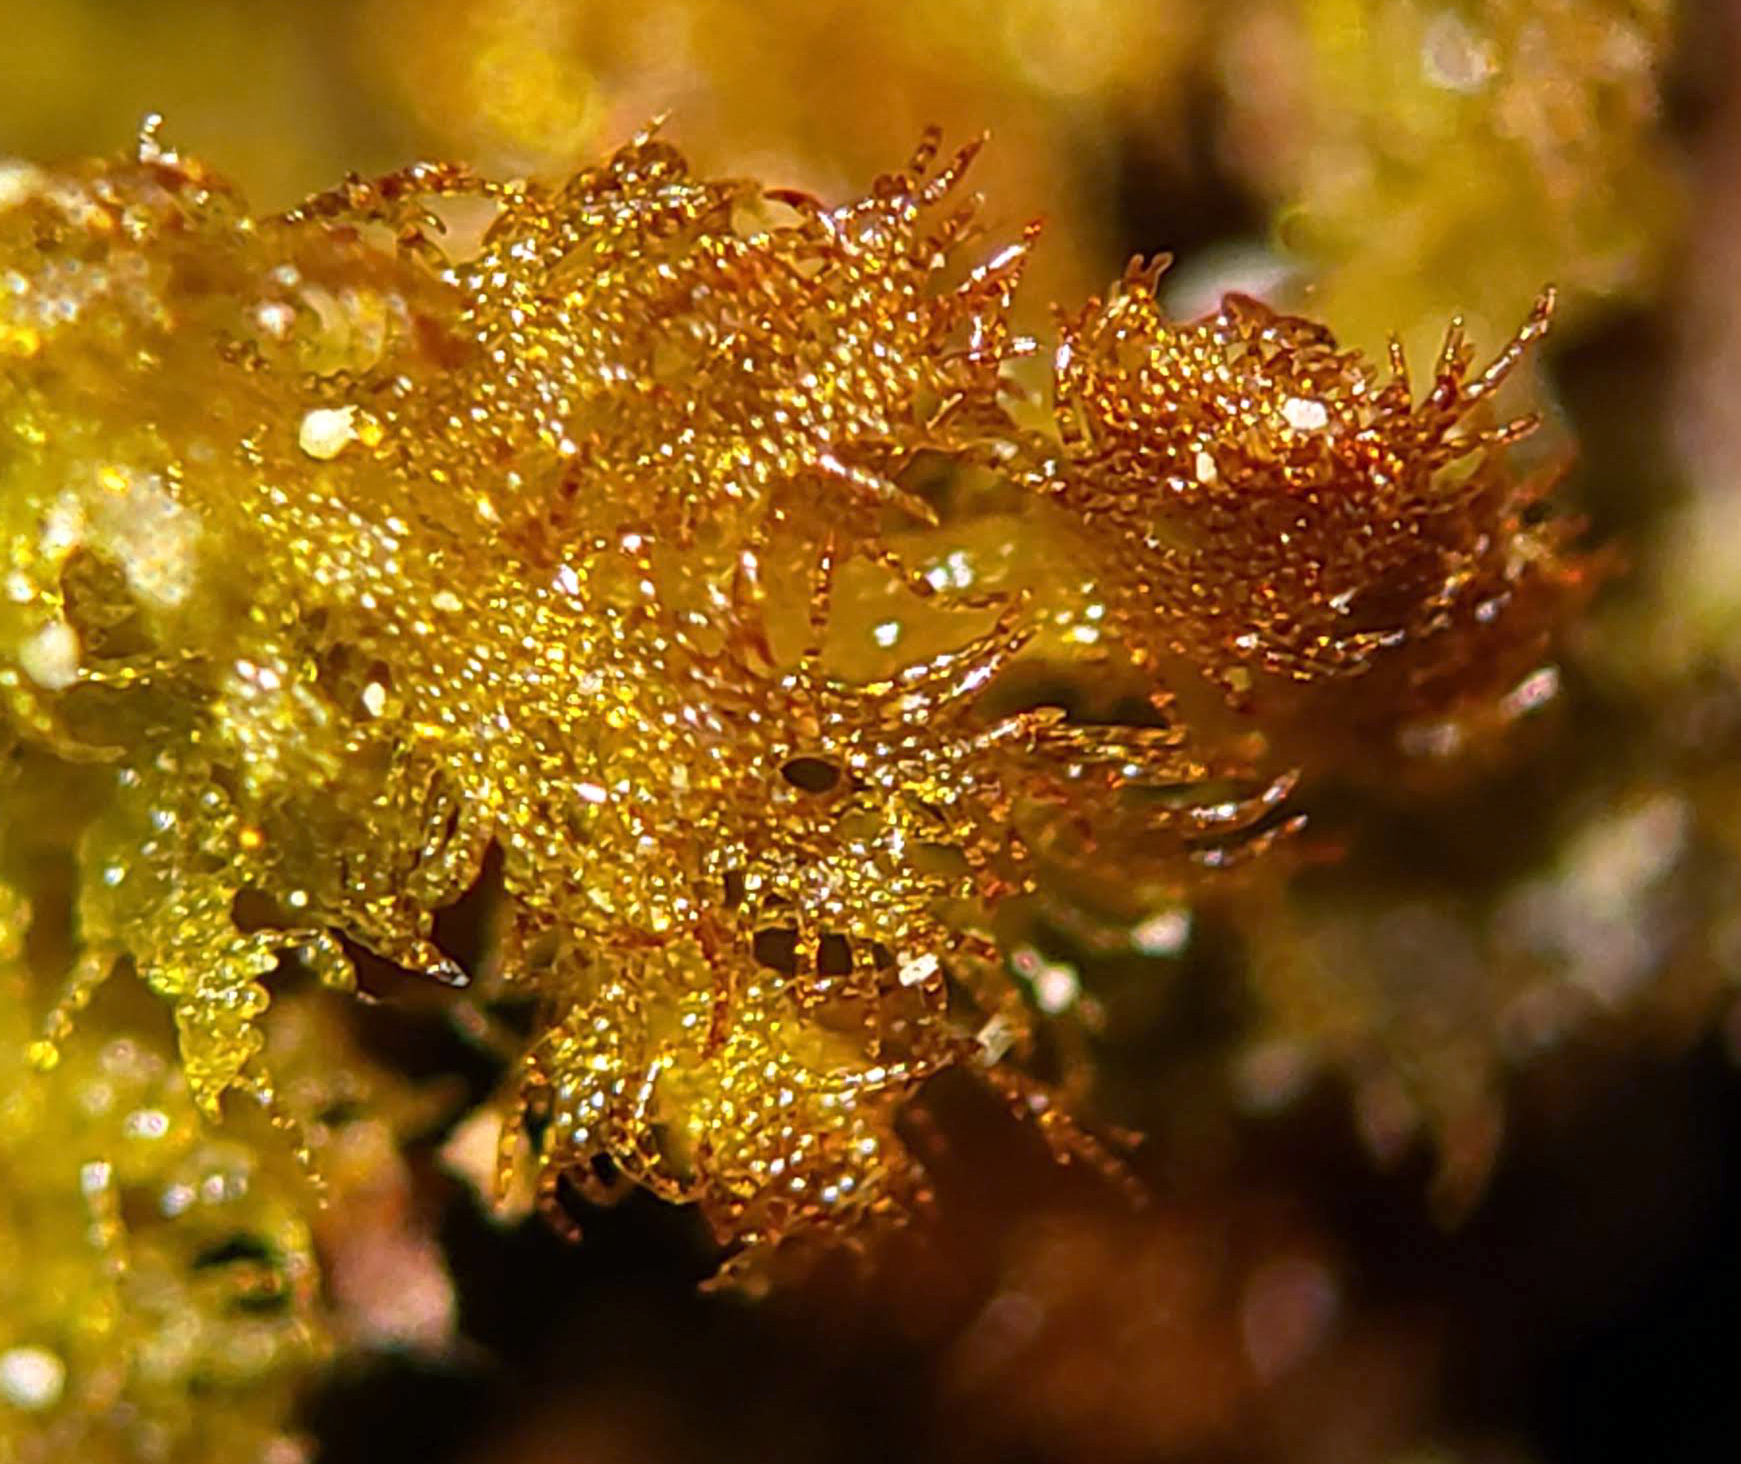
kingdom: Plantae
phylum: Marchantiophyta
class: Jungermanniopsida
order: Ptilidiales
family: Ptilidiaceae
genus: Ptilidium
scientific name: Ptilidium pulcherrimum
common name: Tree fringewort
